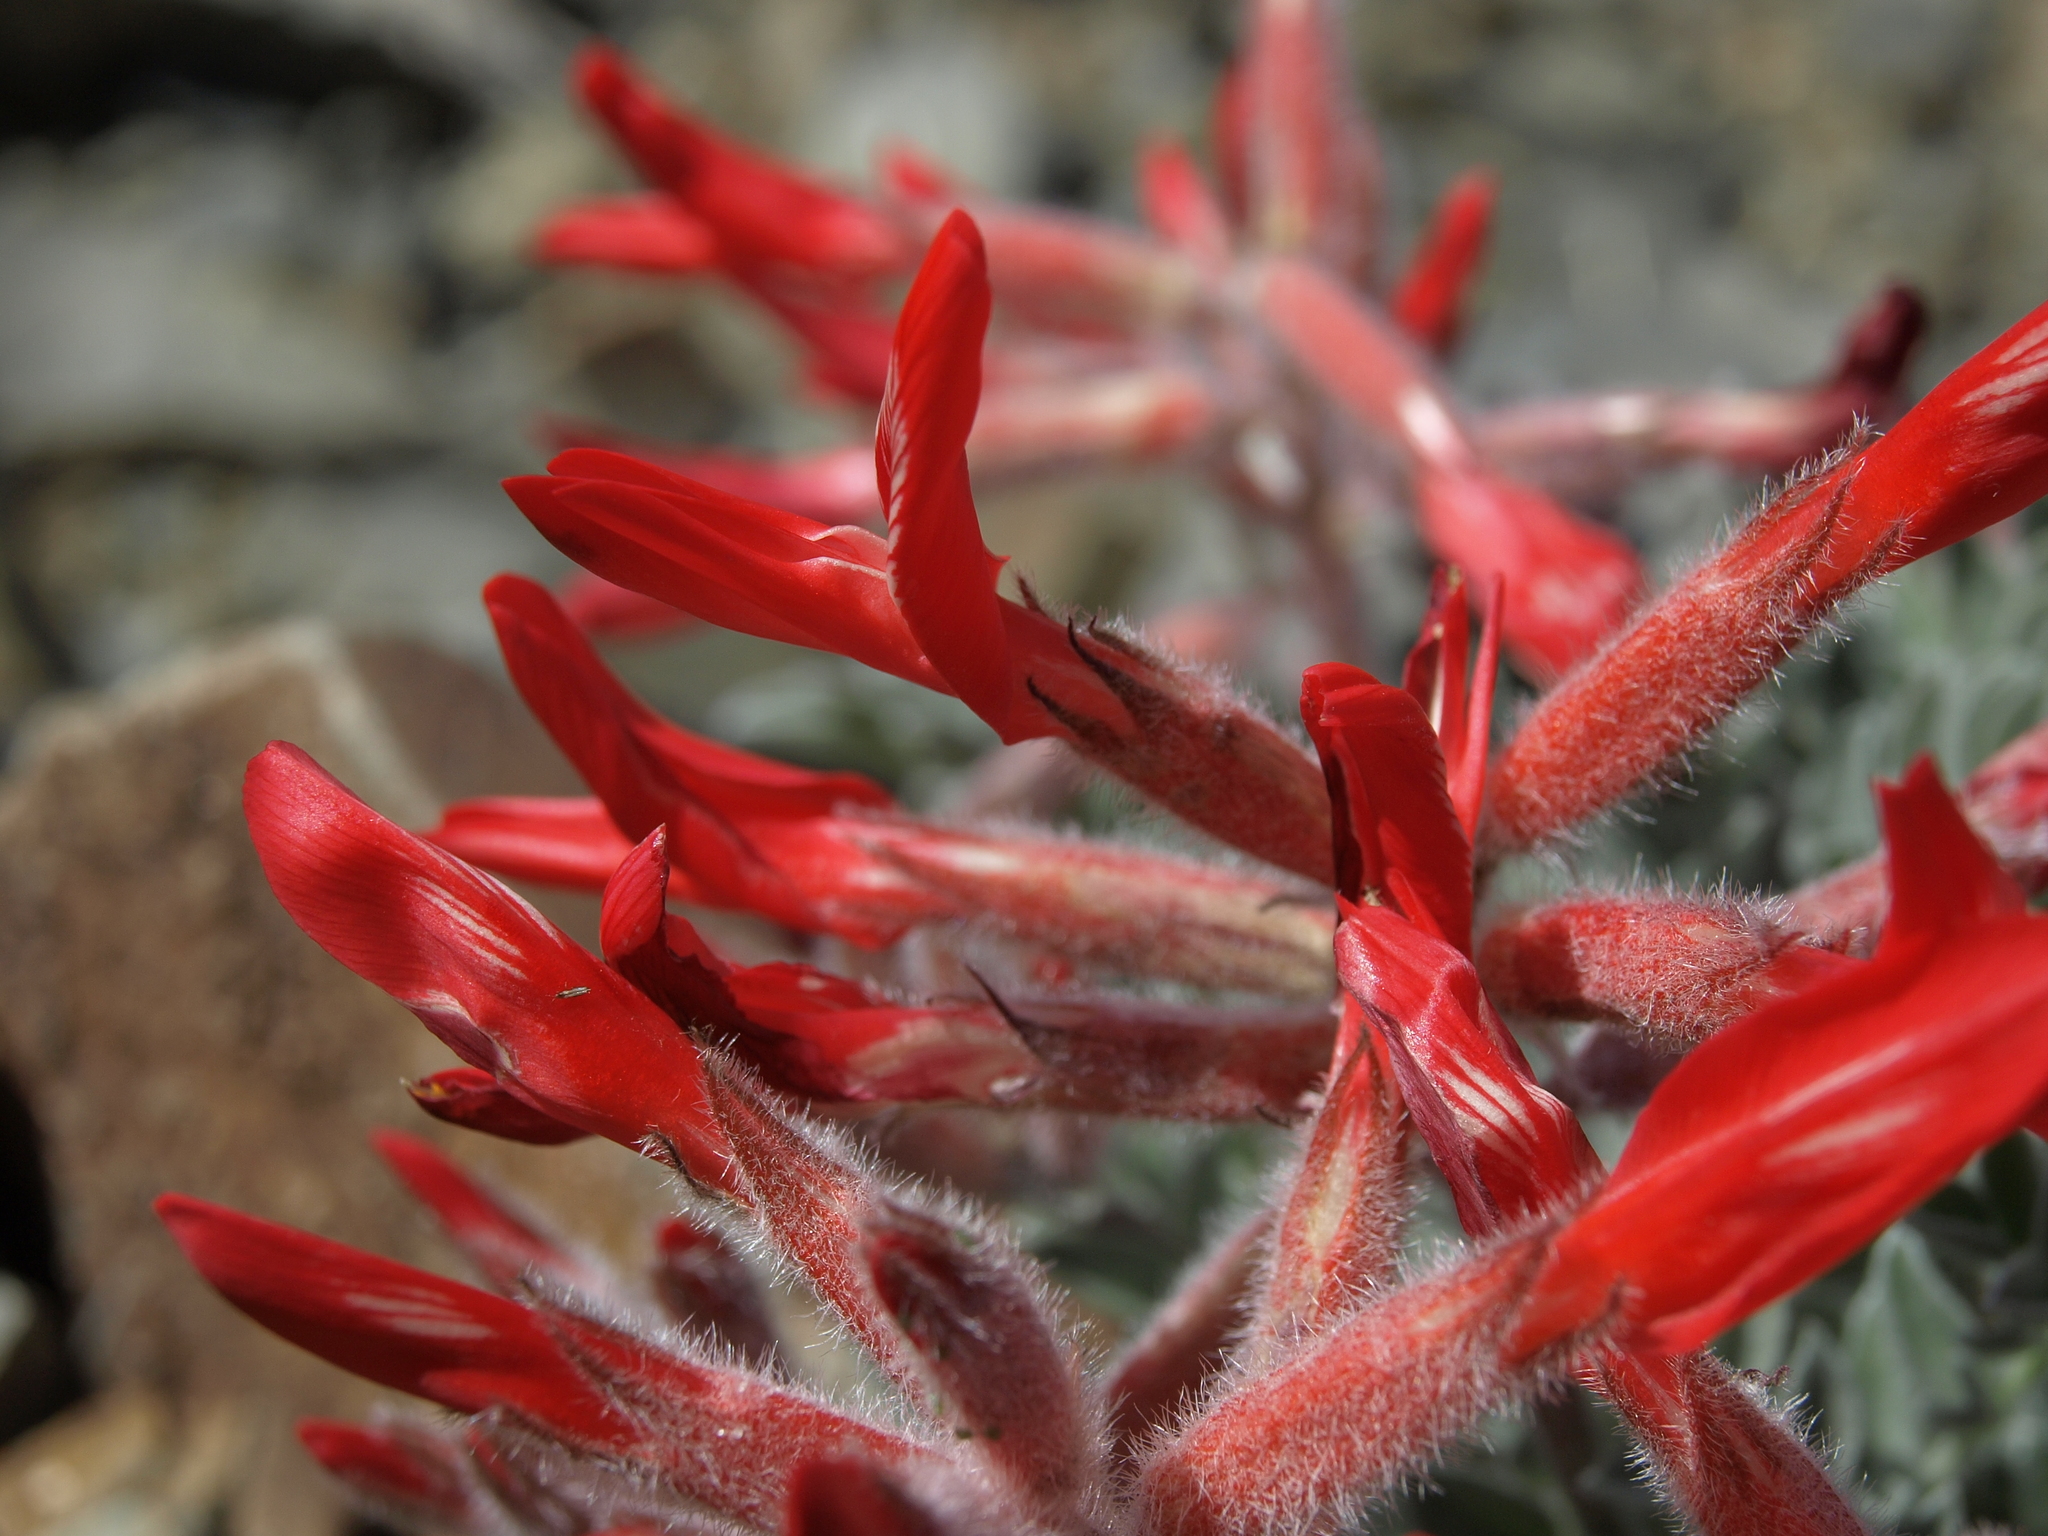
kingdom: Plantae
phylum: Tracheophyta
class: Magnoliopsida
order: Fabales
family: Fabaceae
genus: Astragalus
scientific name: Astragalus coccineus
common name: Scarlet milk-vetch
